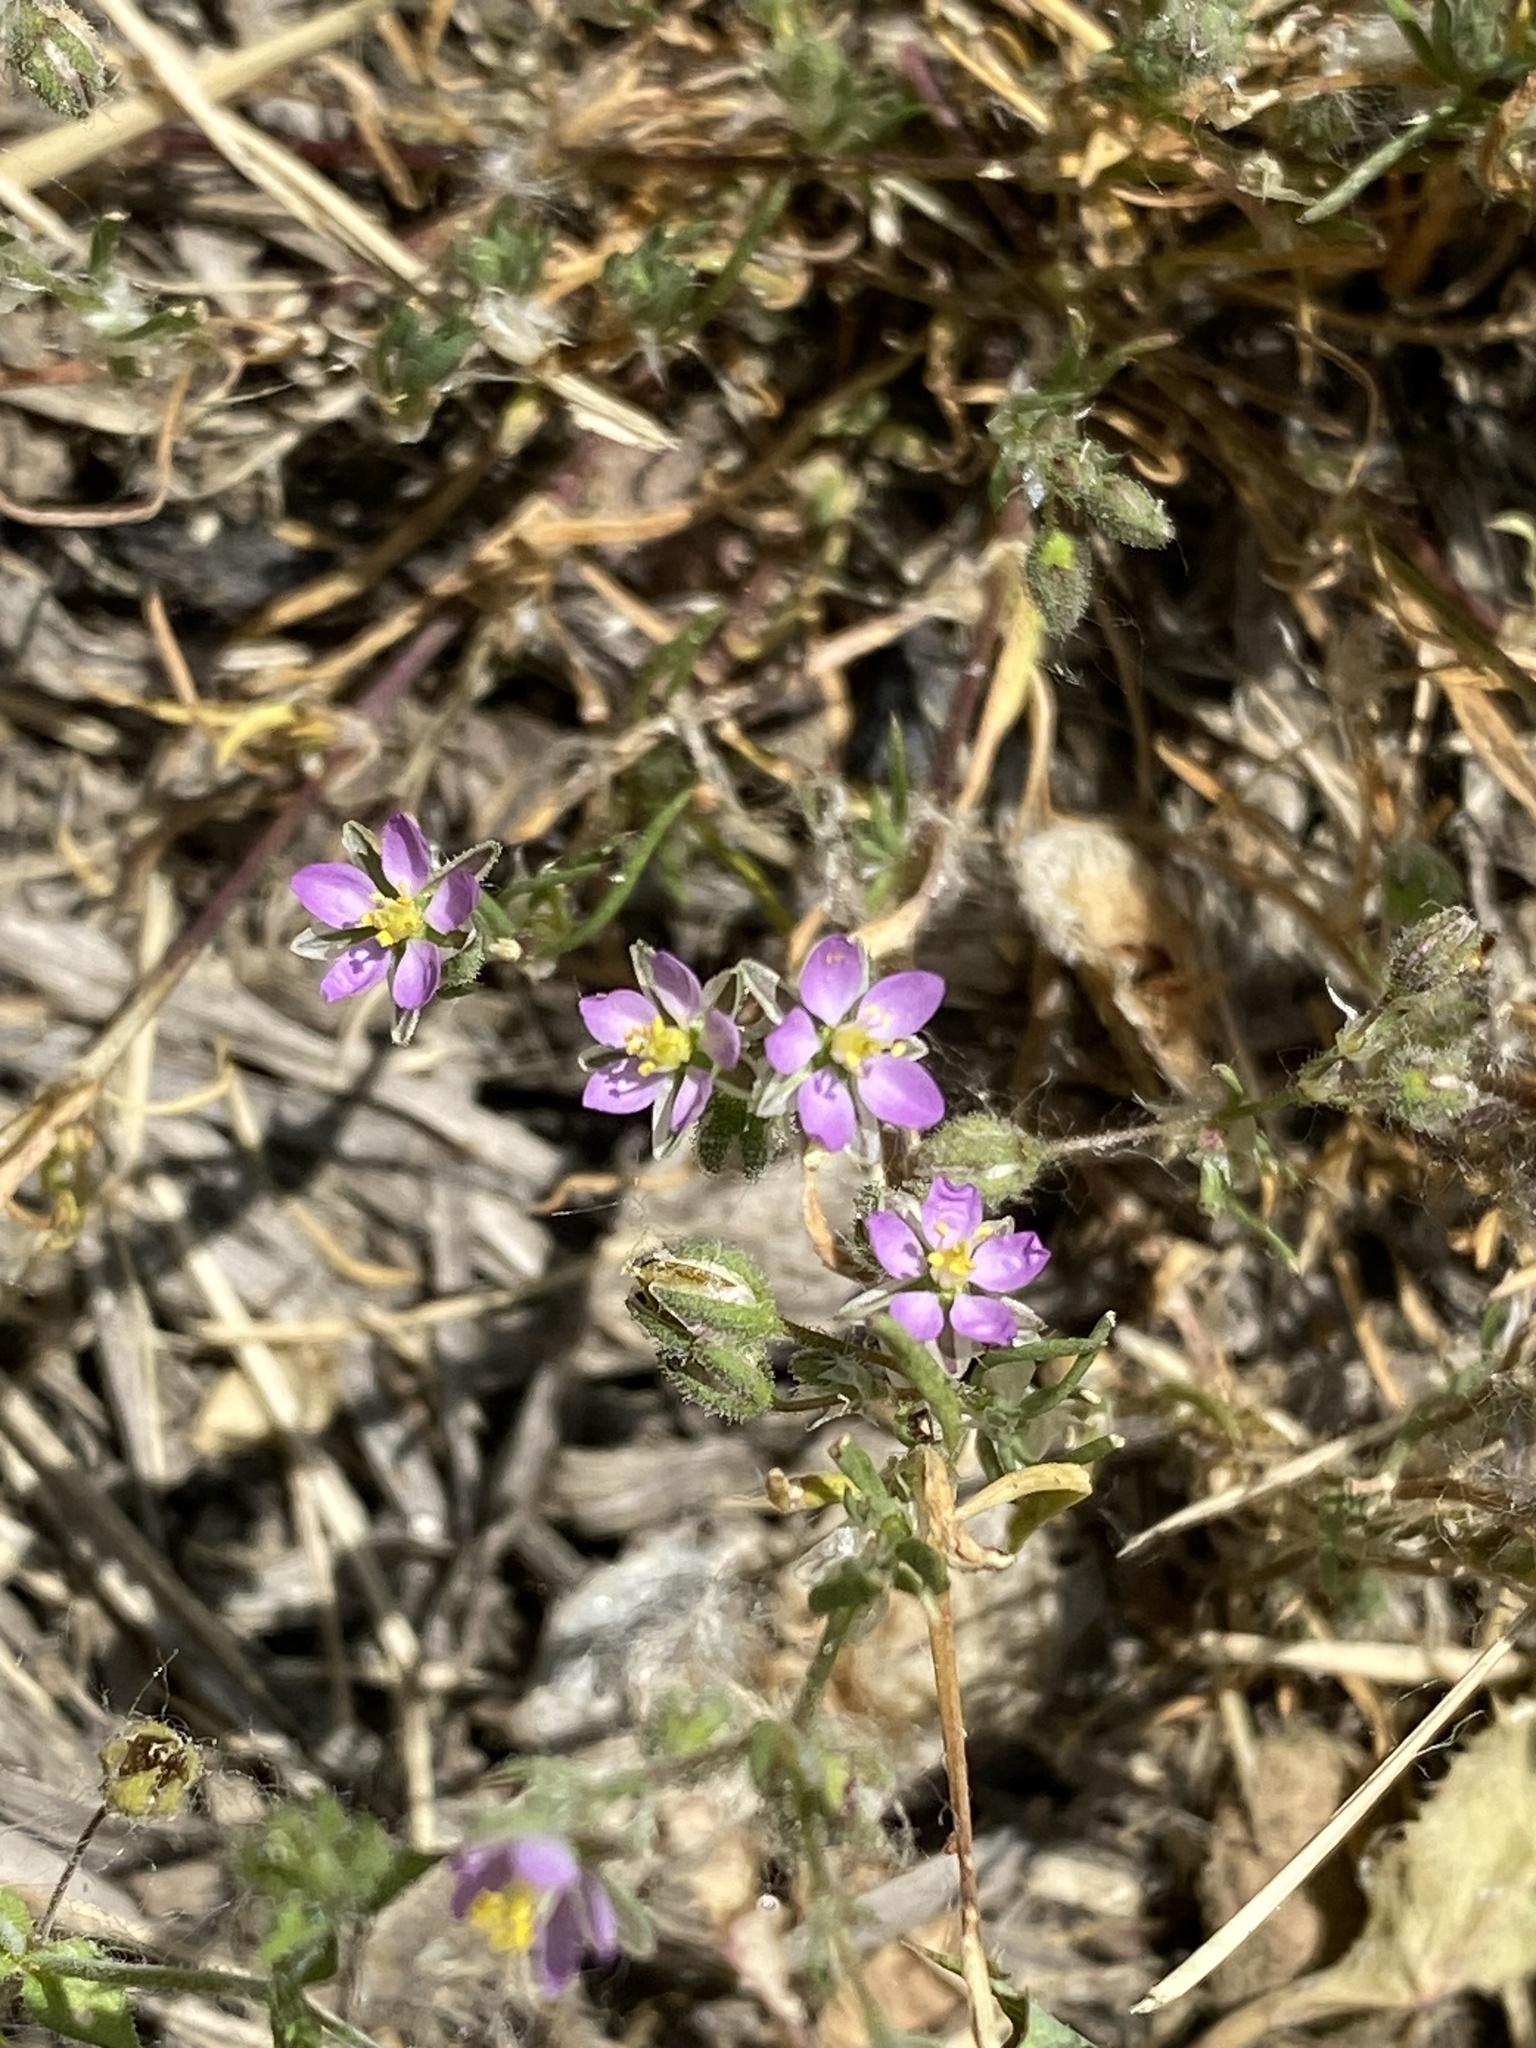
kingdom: Plantae
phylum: Tracheophyta
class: Magnoliopsida
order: Caryophyllales
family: Caryophyllaceae
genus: Spergularia
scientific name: Spergularia rubra
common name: Red sand-spurrey
